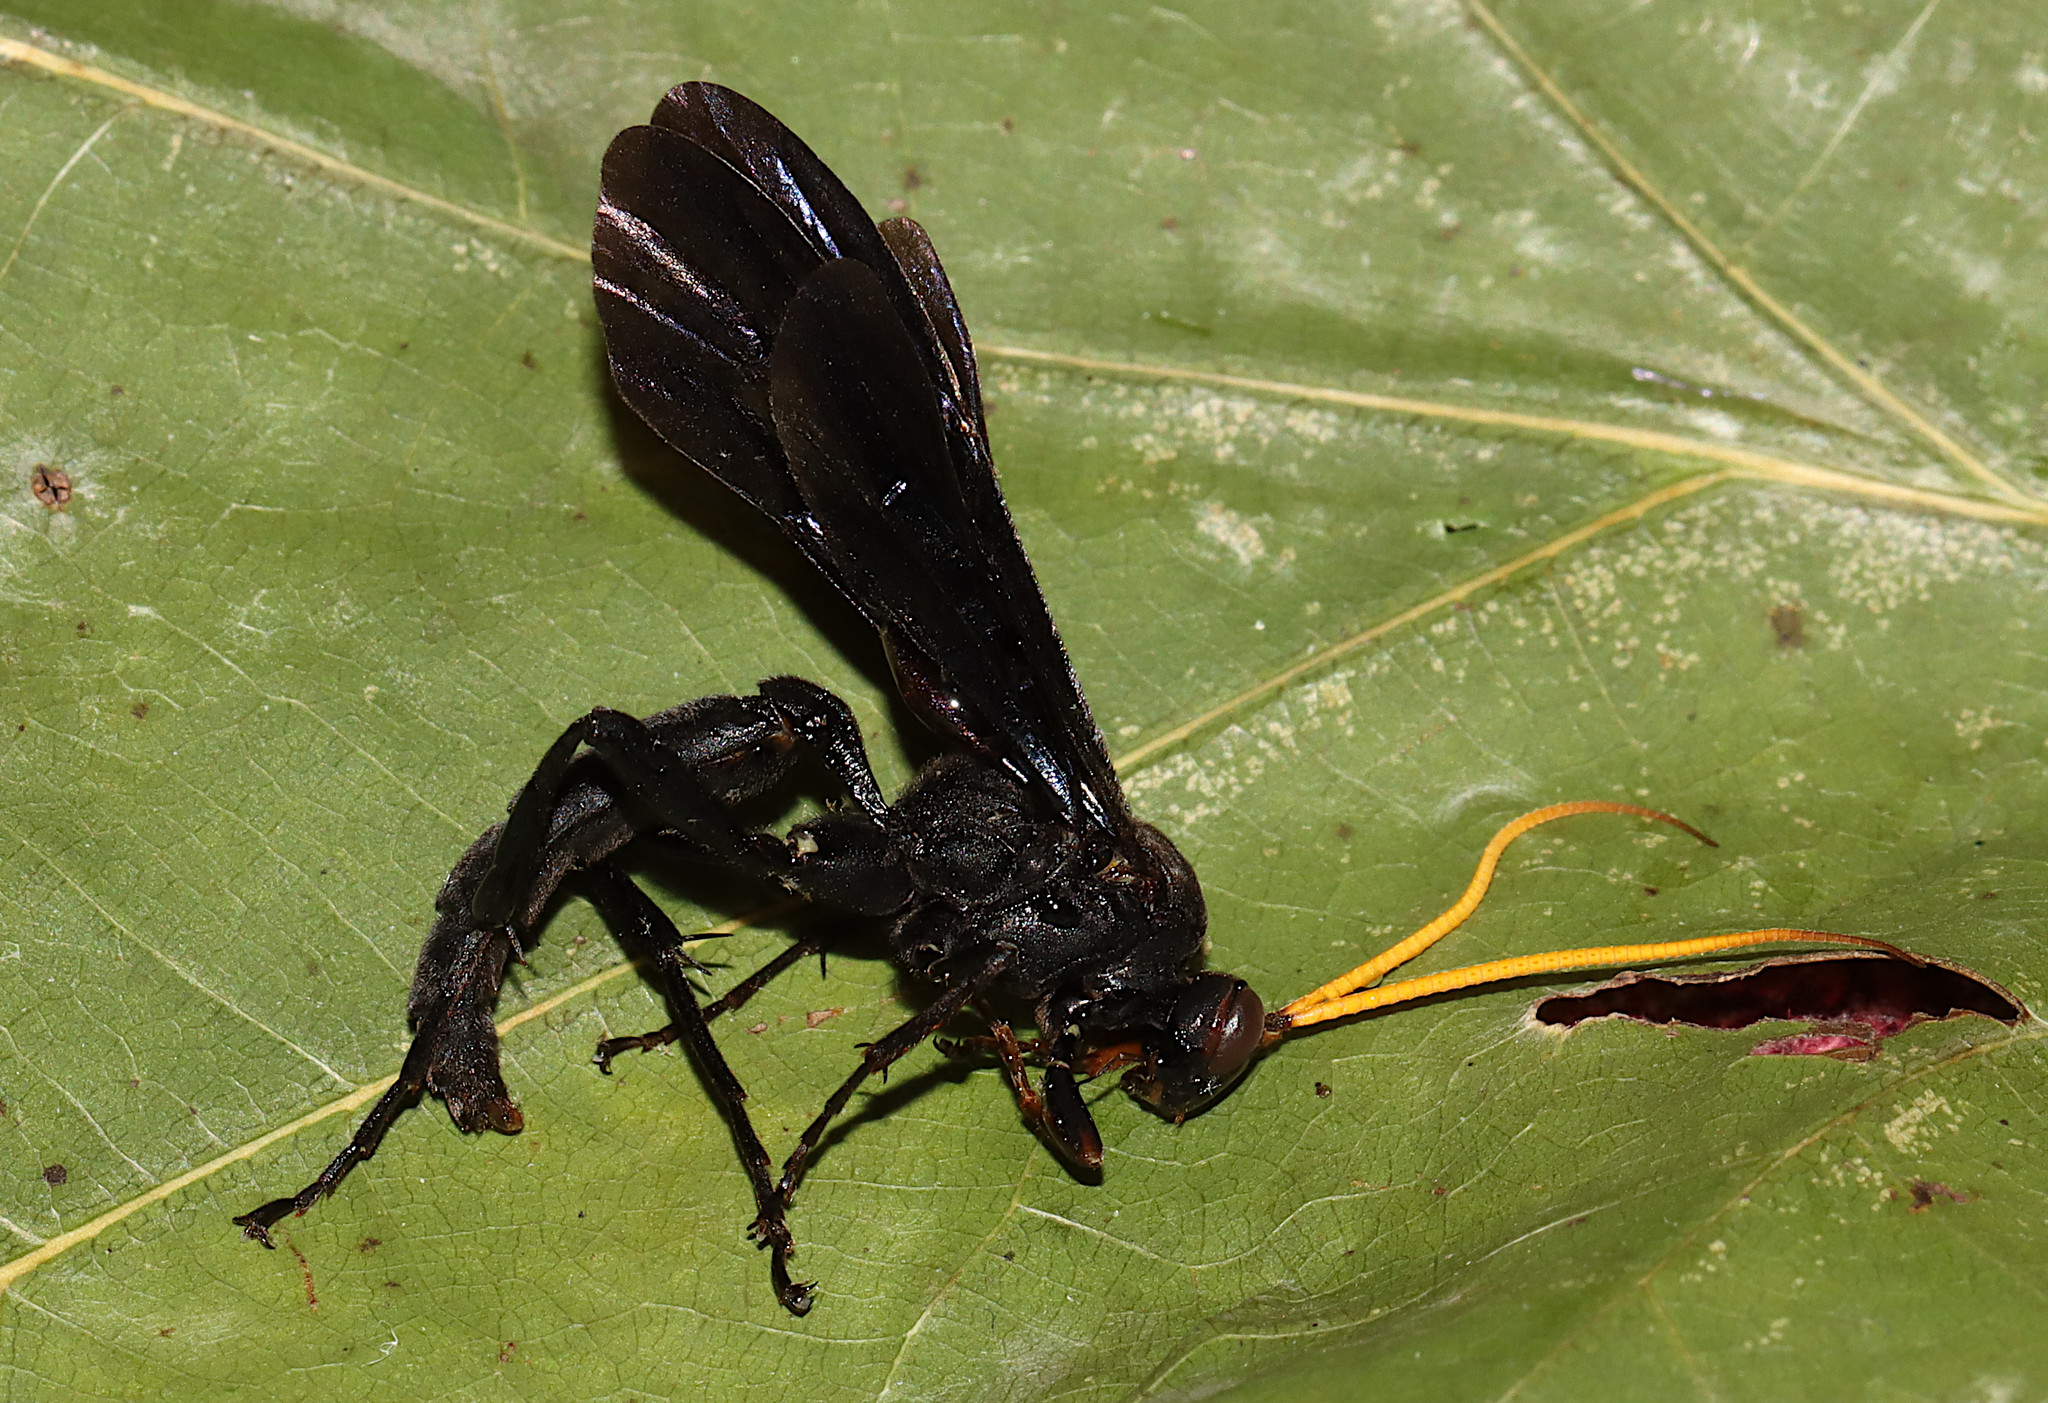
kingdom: Animalia
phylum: Arthropoda
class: Insecta
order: Hymenoptera
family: Ichneumonidae
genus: Gnamptopelta
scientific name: Gnamptopelta obsidianator
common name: Bent-shielded besieger wasp
